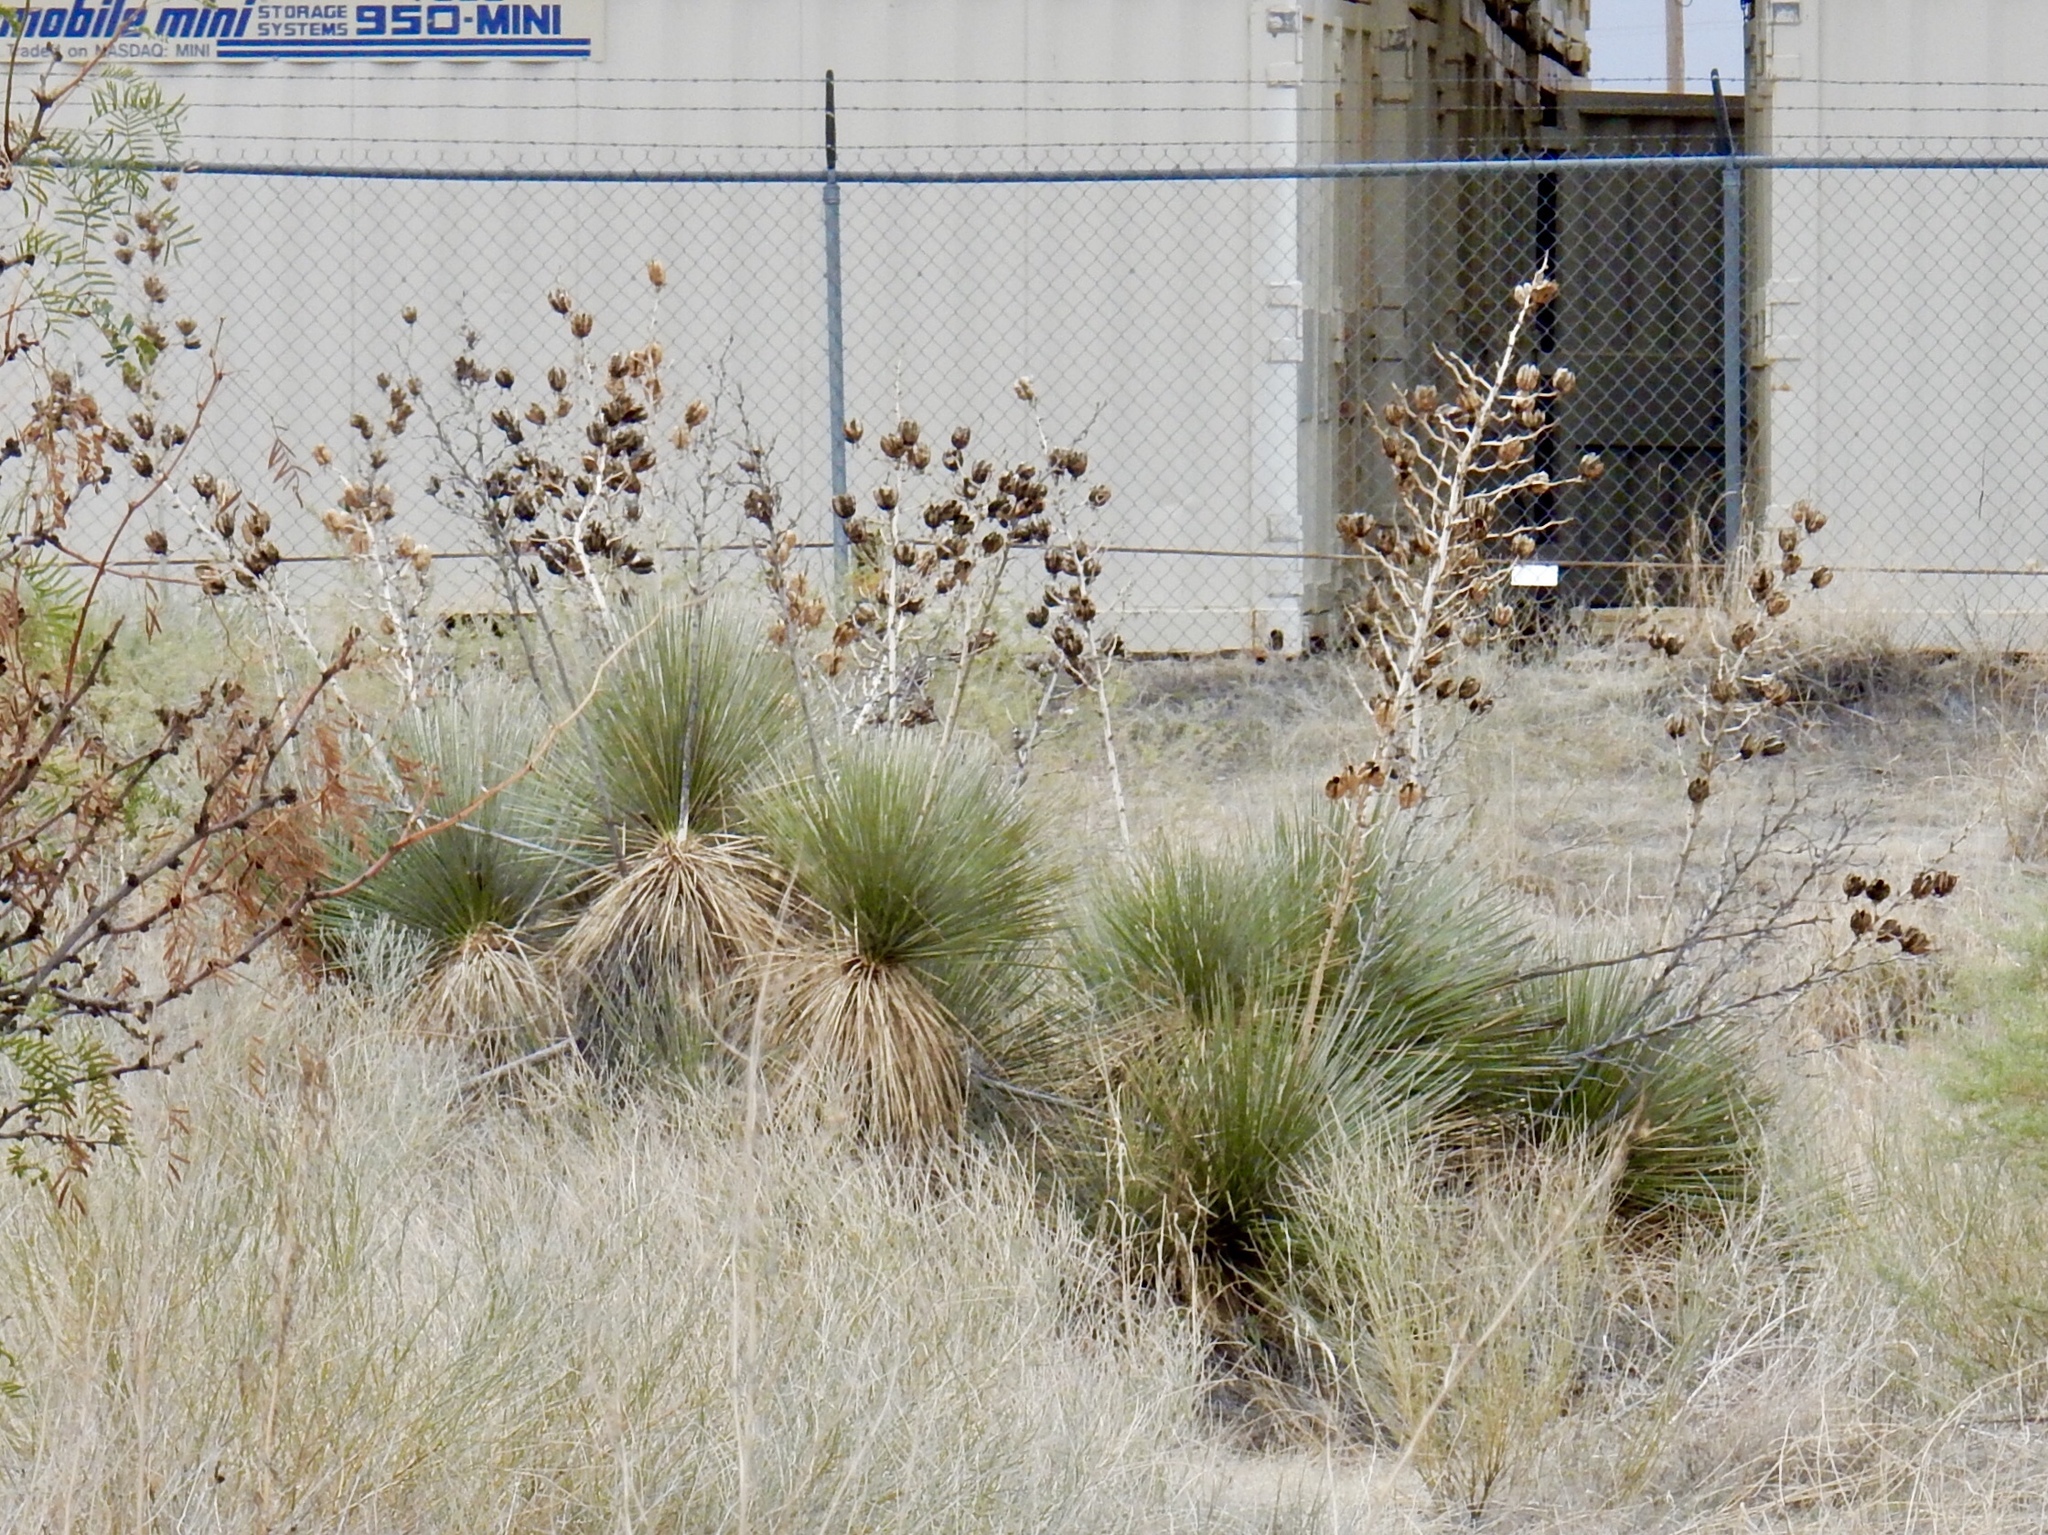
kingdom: Plantae
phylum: Tracheophyta
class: Liliopsida
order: Asparagales
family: Asparagaceae
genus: Yucca
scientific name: Yucca elata
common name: Palmella
